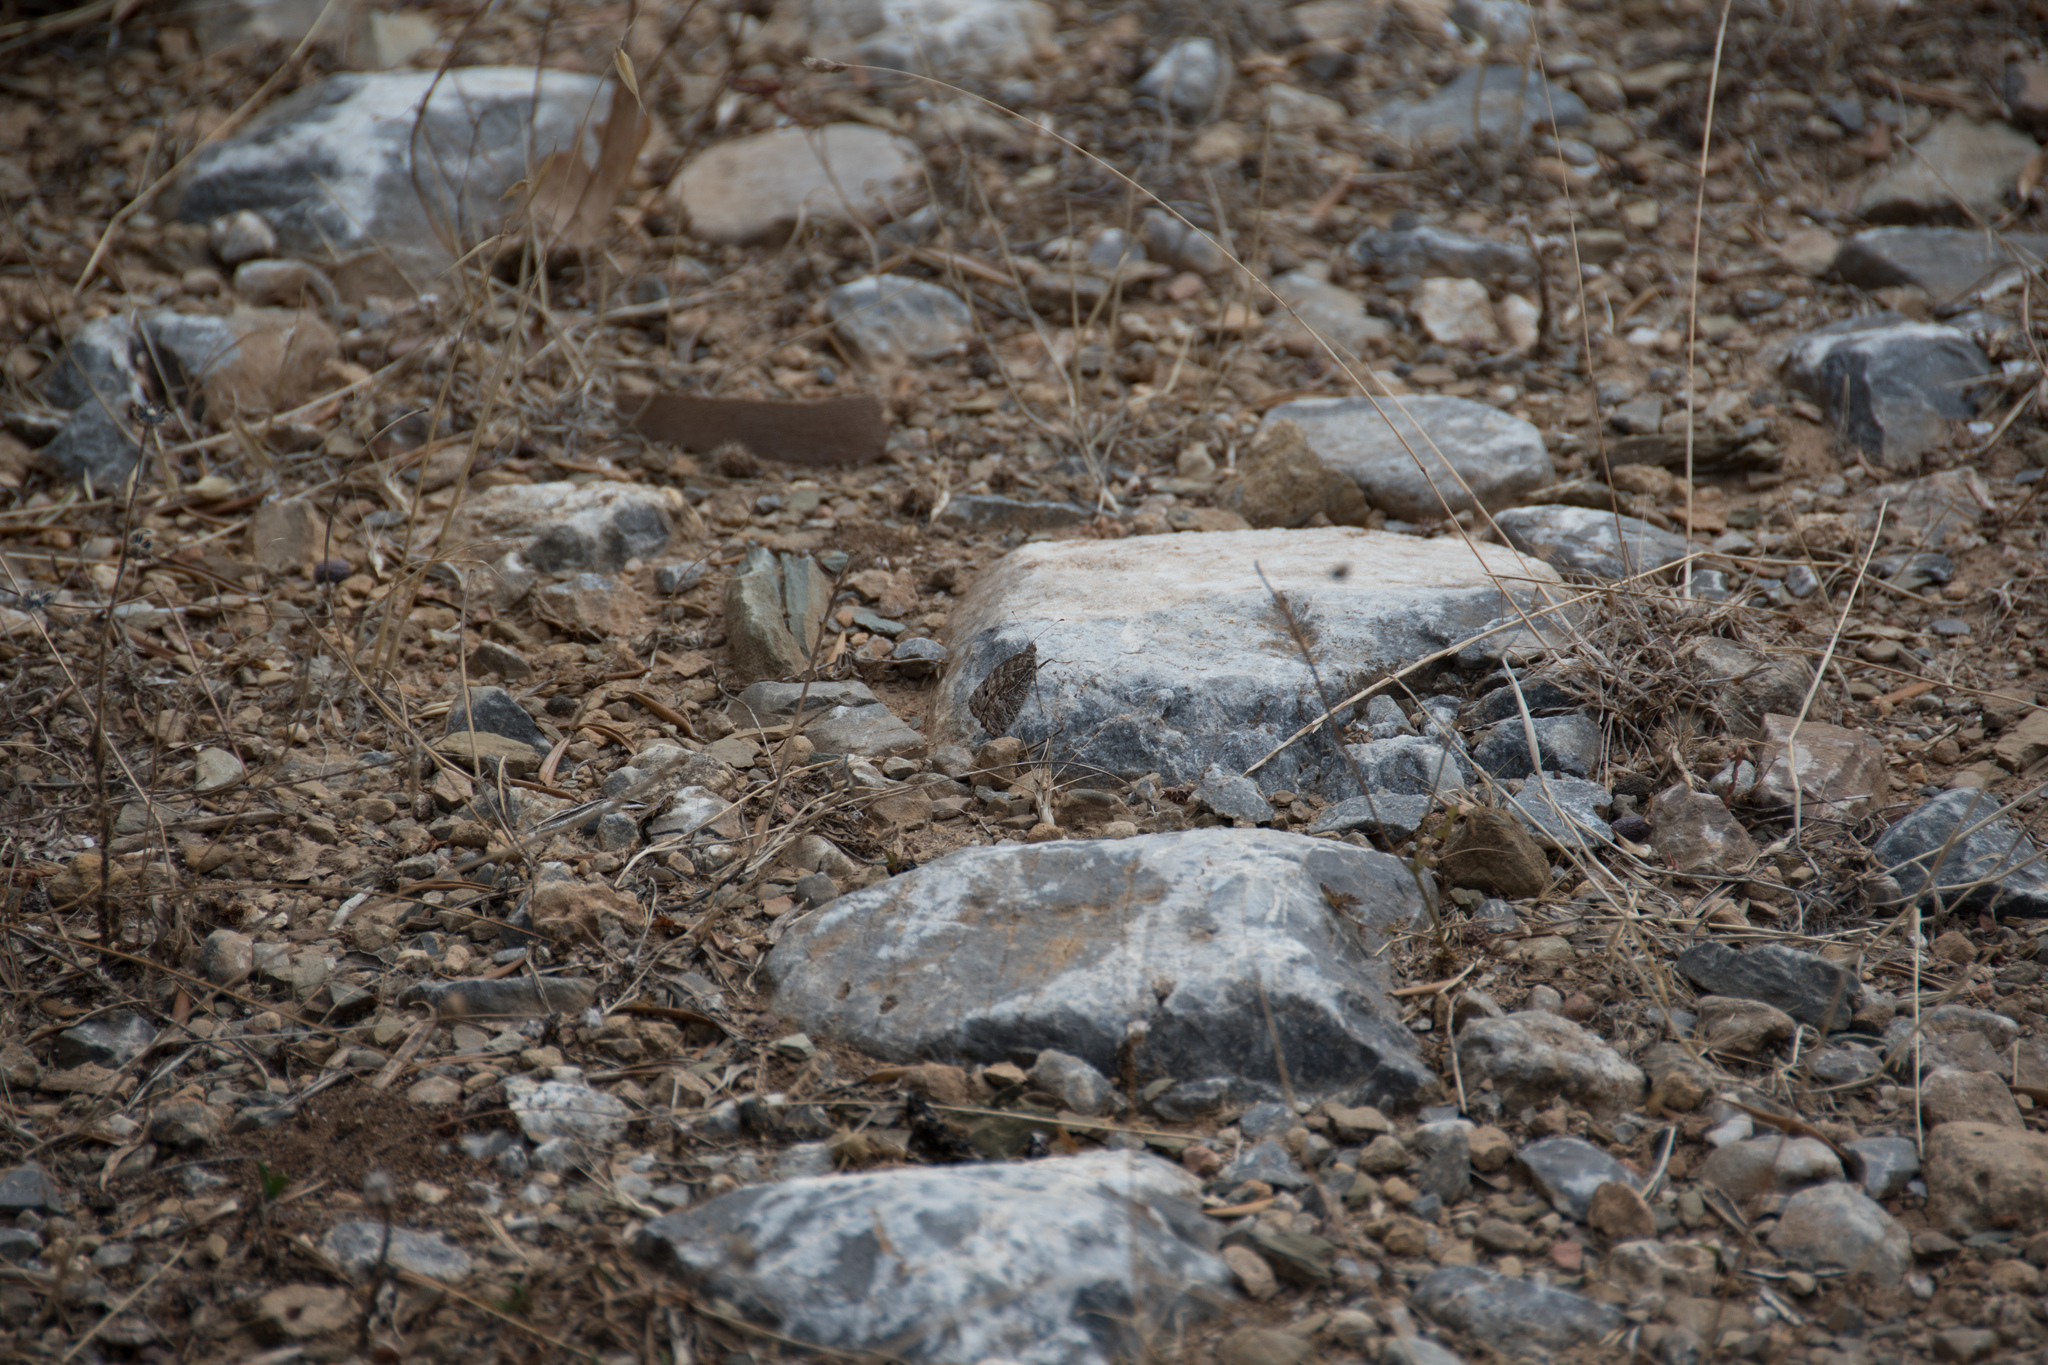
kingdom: Animalia
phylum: Arthropoda
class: Insecta
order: Lepidoptera
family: Nymphalidae
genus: Hipparchia
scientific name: Hipparchia cretica
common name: Cretan grayling
